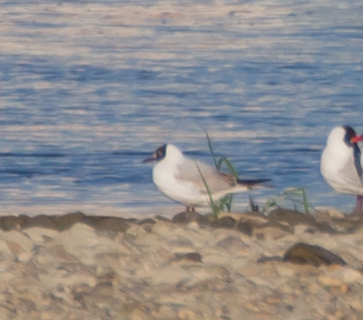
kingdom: Animalia
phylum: Chordata
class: Aves
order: Charadriiformes
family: Laridae
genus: Chroicocephalus
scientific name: Chroicocephalus ridibundus
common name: Black-headed gull
